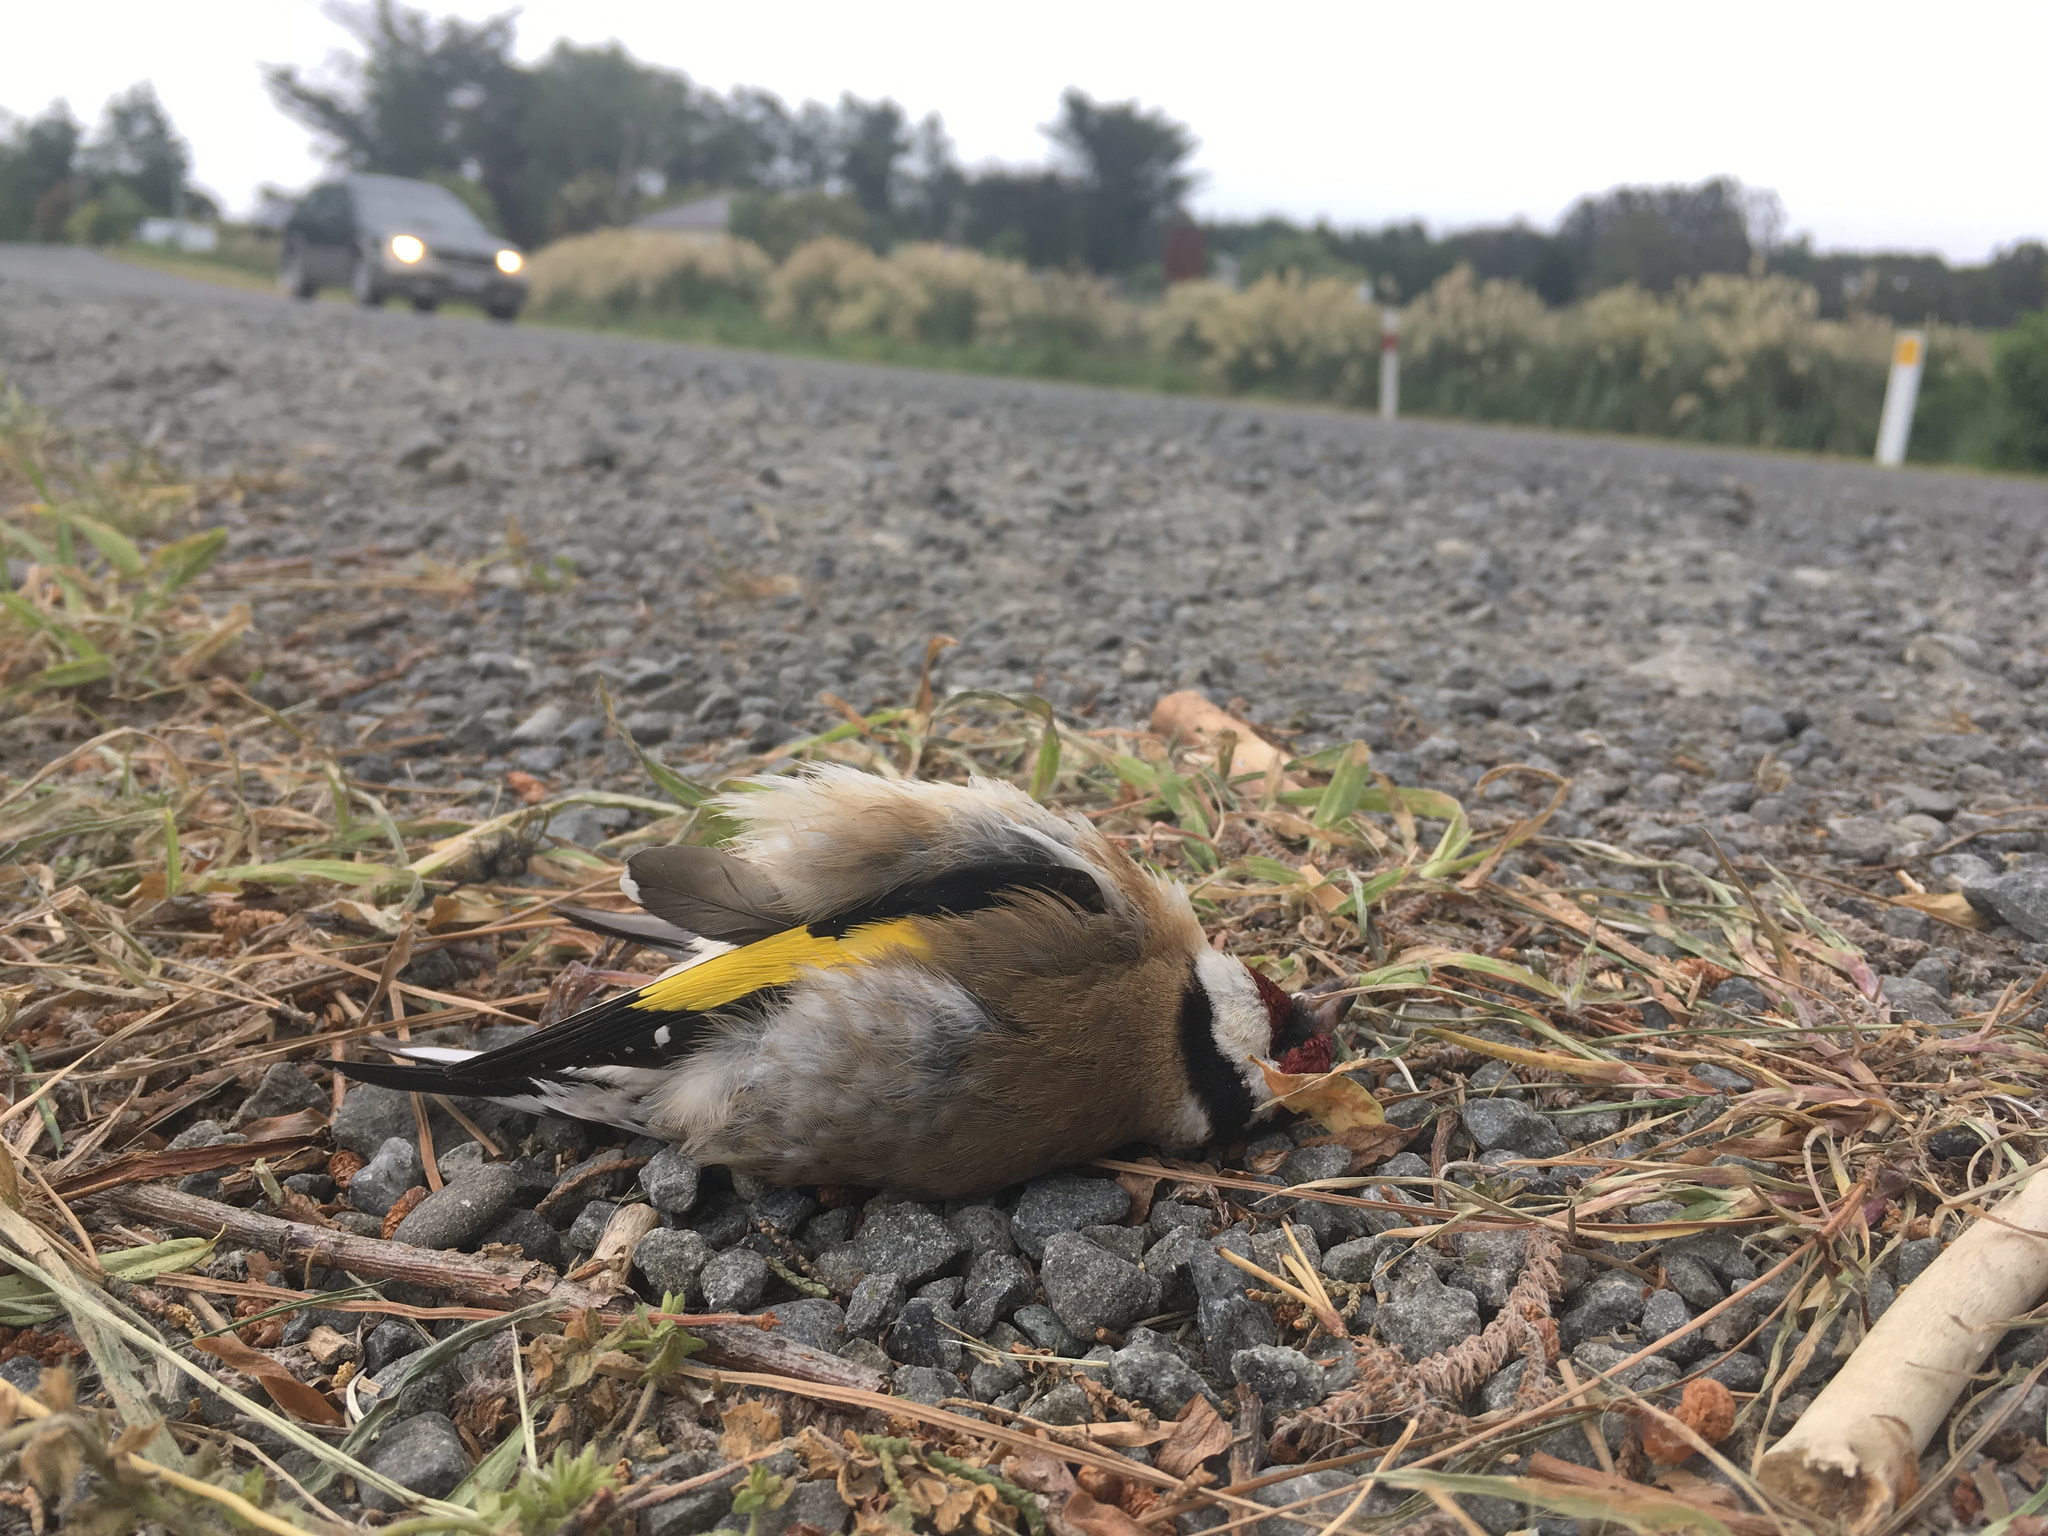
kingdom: Animalia
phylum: Chordata
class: Aves
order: Passeriformes
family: Fringillidae
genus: Carduelis
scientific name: Carduelis carduelis
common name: European goldfinch
